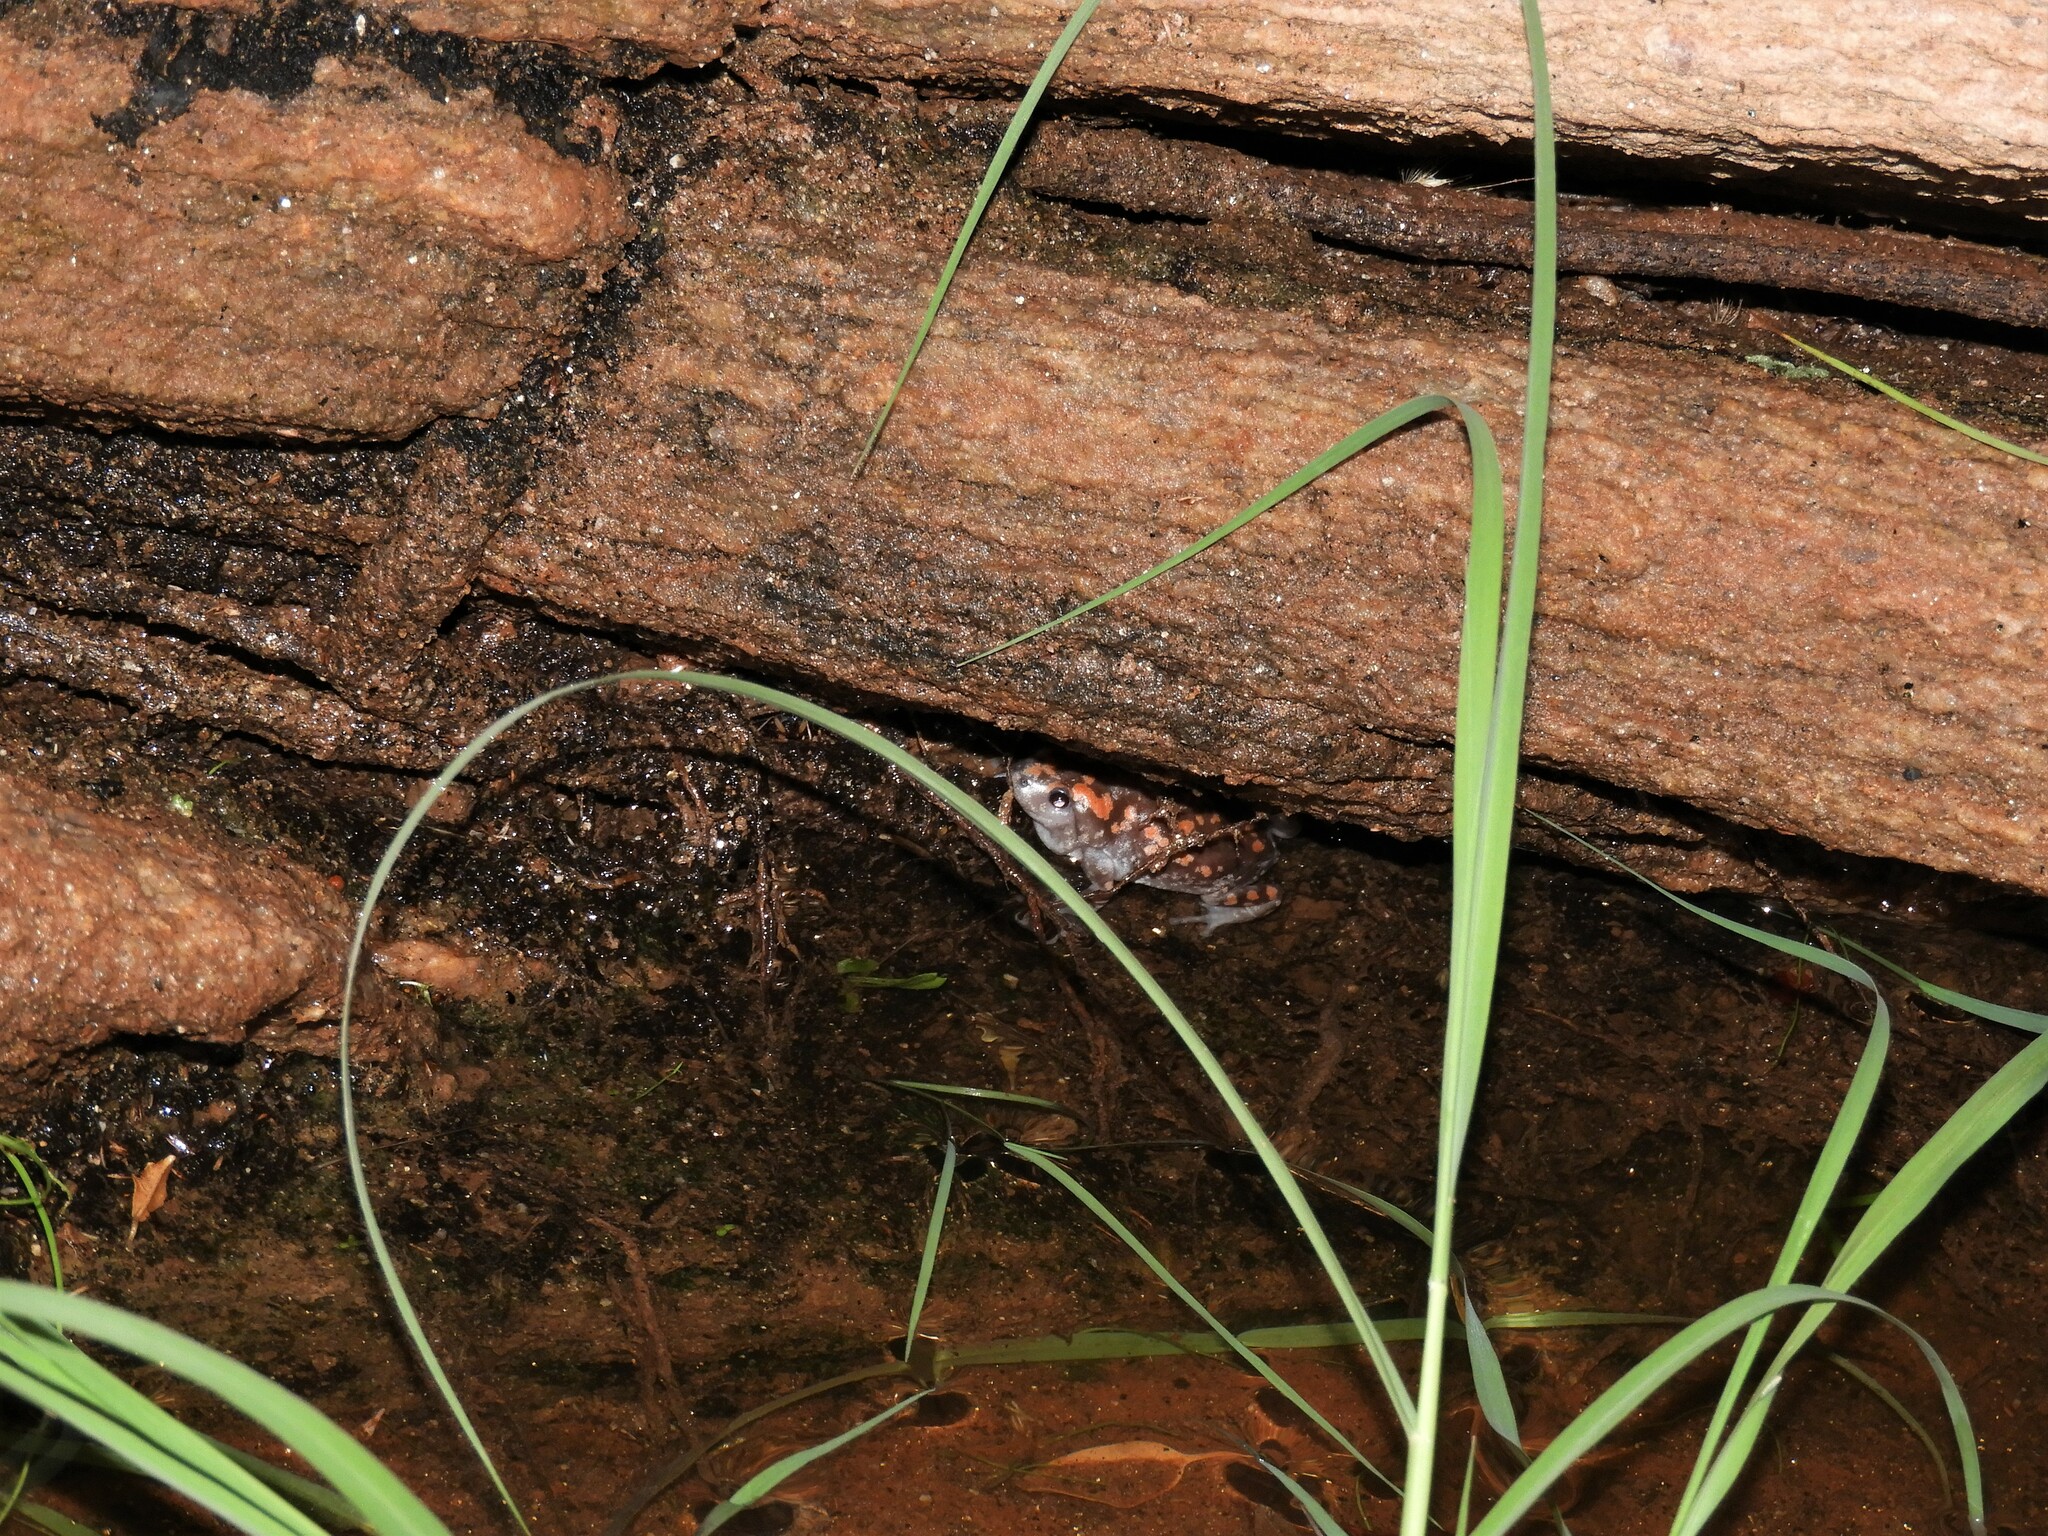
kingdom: Animalia
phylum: Chordata
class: Amphibia
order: Anura
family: Microhylidae
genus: Phrynomantis
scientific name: Phrynomantis annectens
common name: Marbled rubber frog
